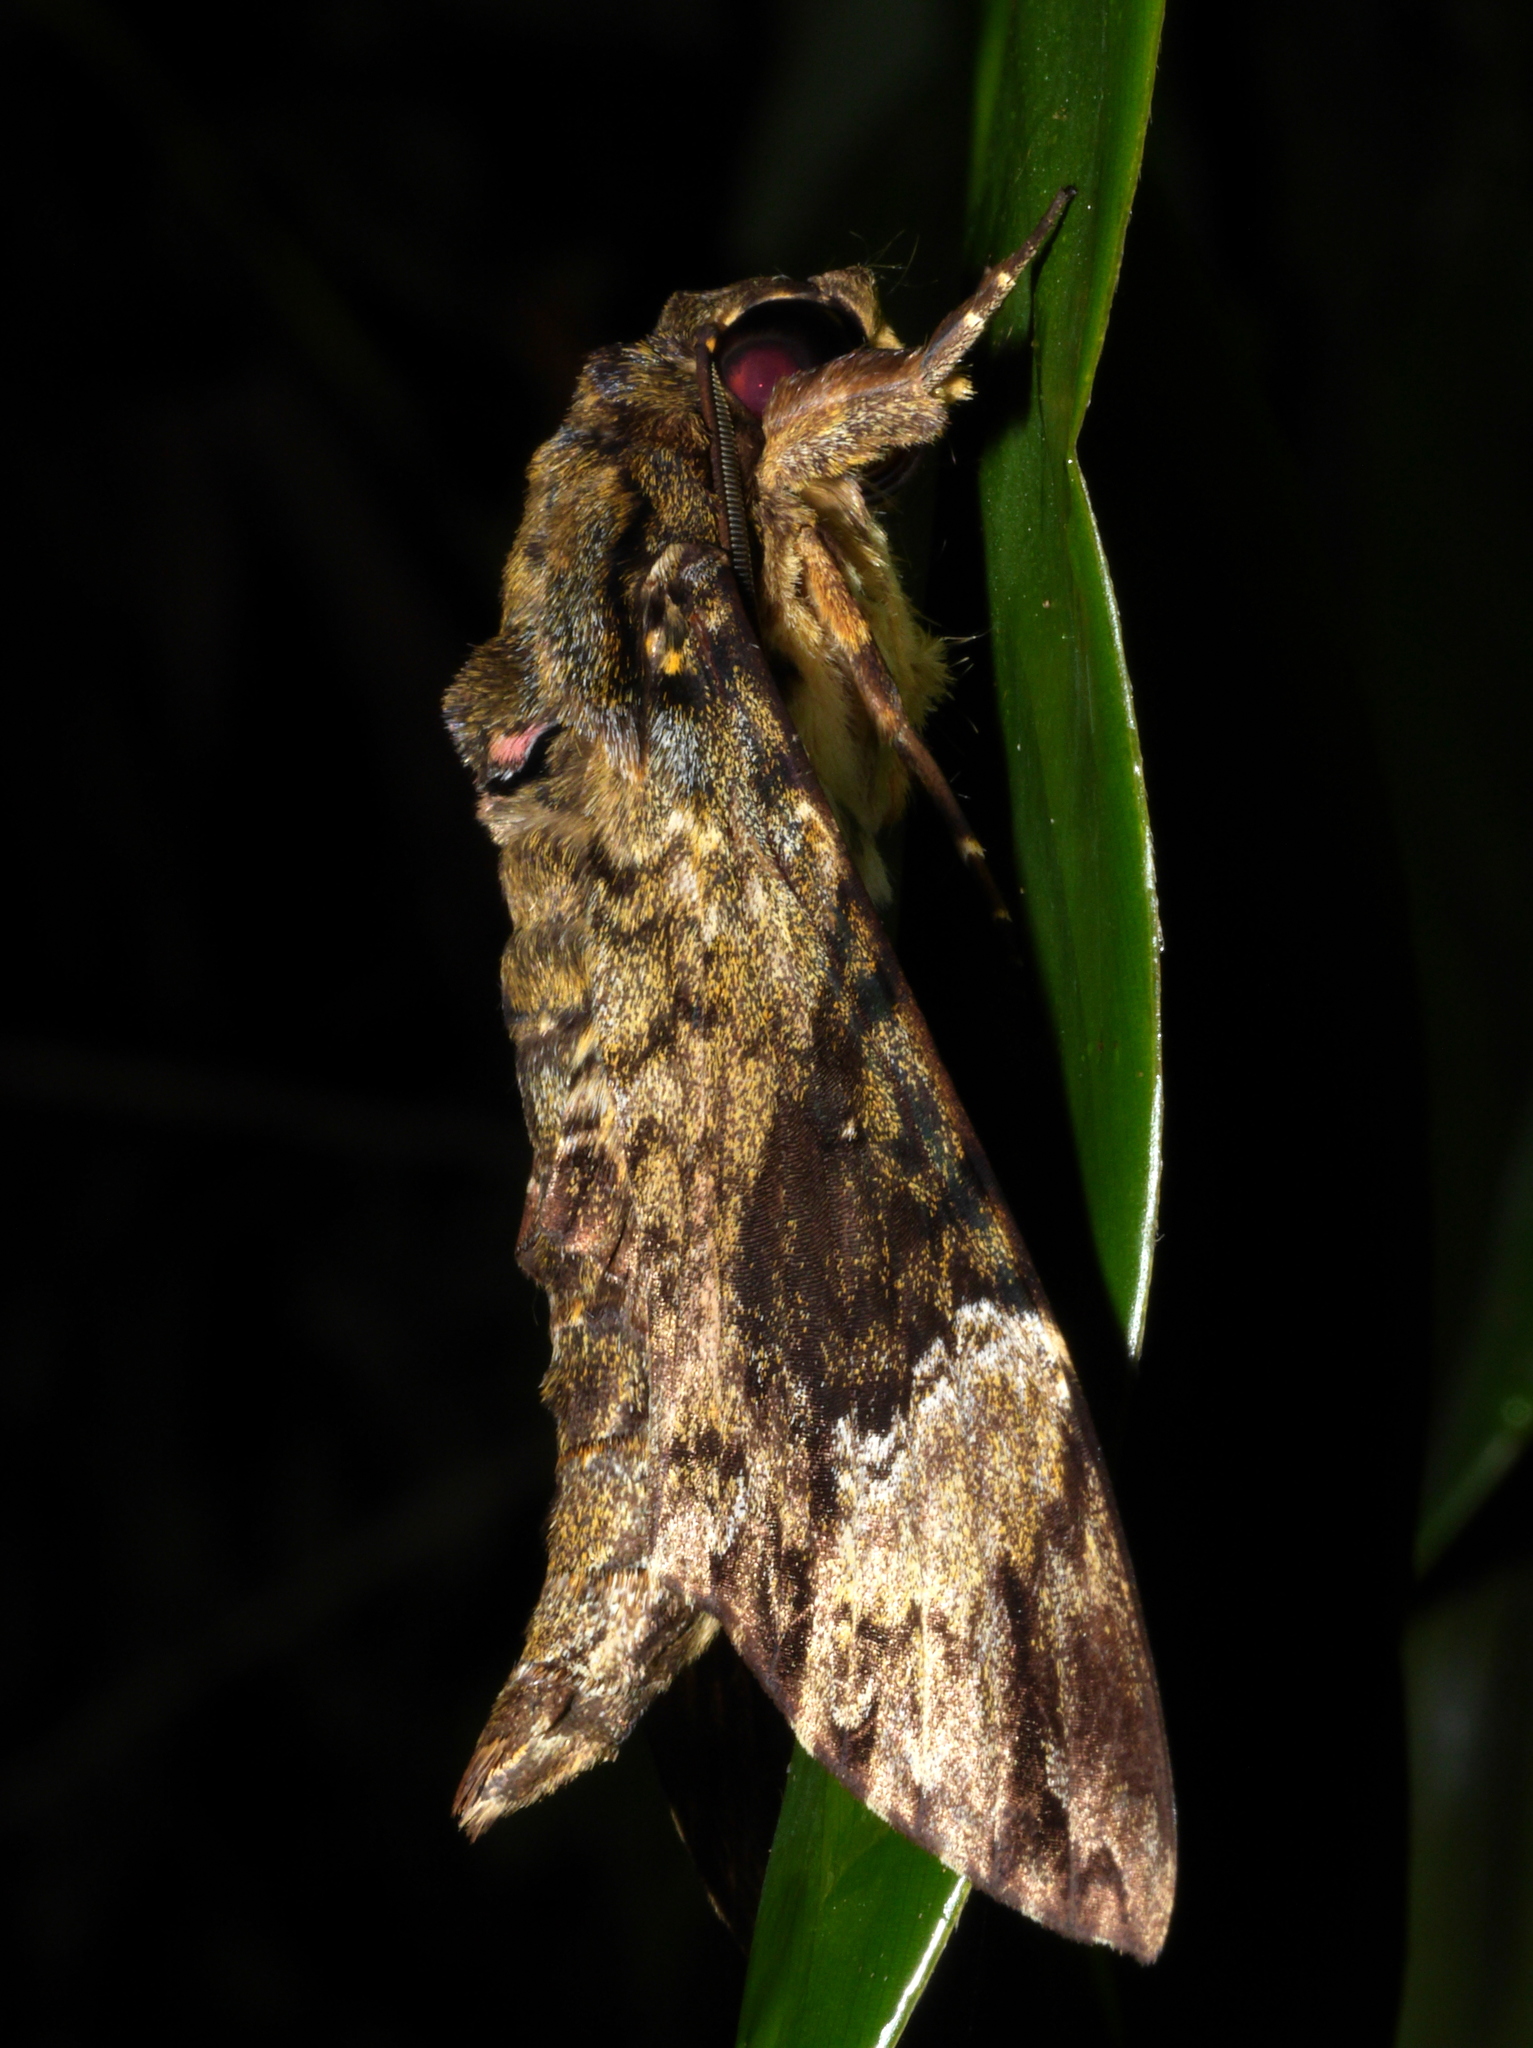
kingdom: Animalia
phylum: Arthropoda
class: Insecta
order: Lepidoptera
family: Sphingidae
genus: Coelonia
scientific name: Coelonia fulvinotata
